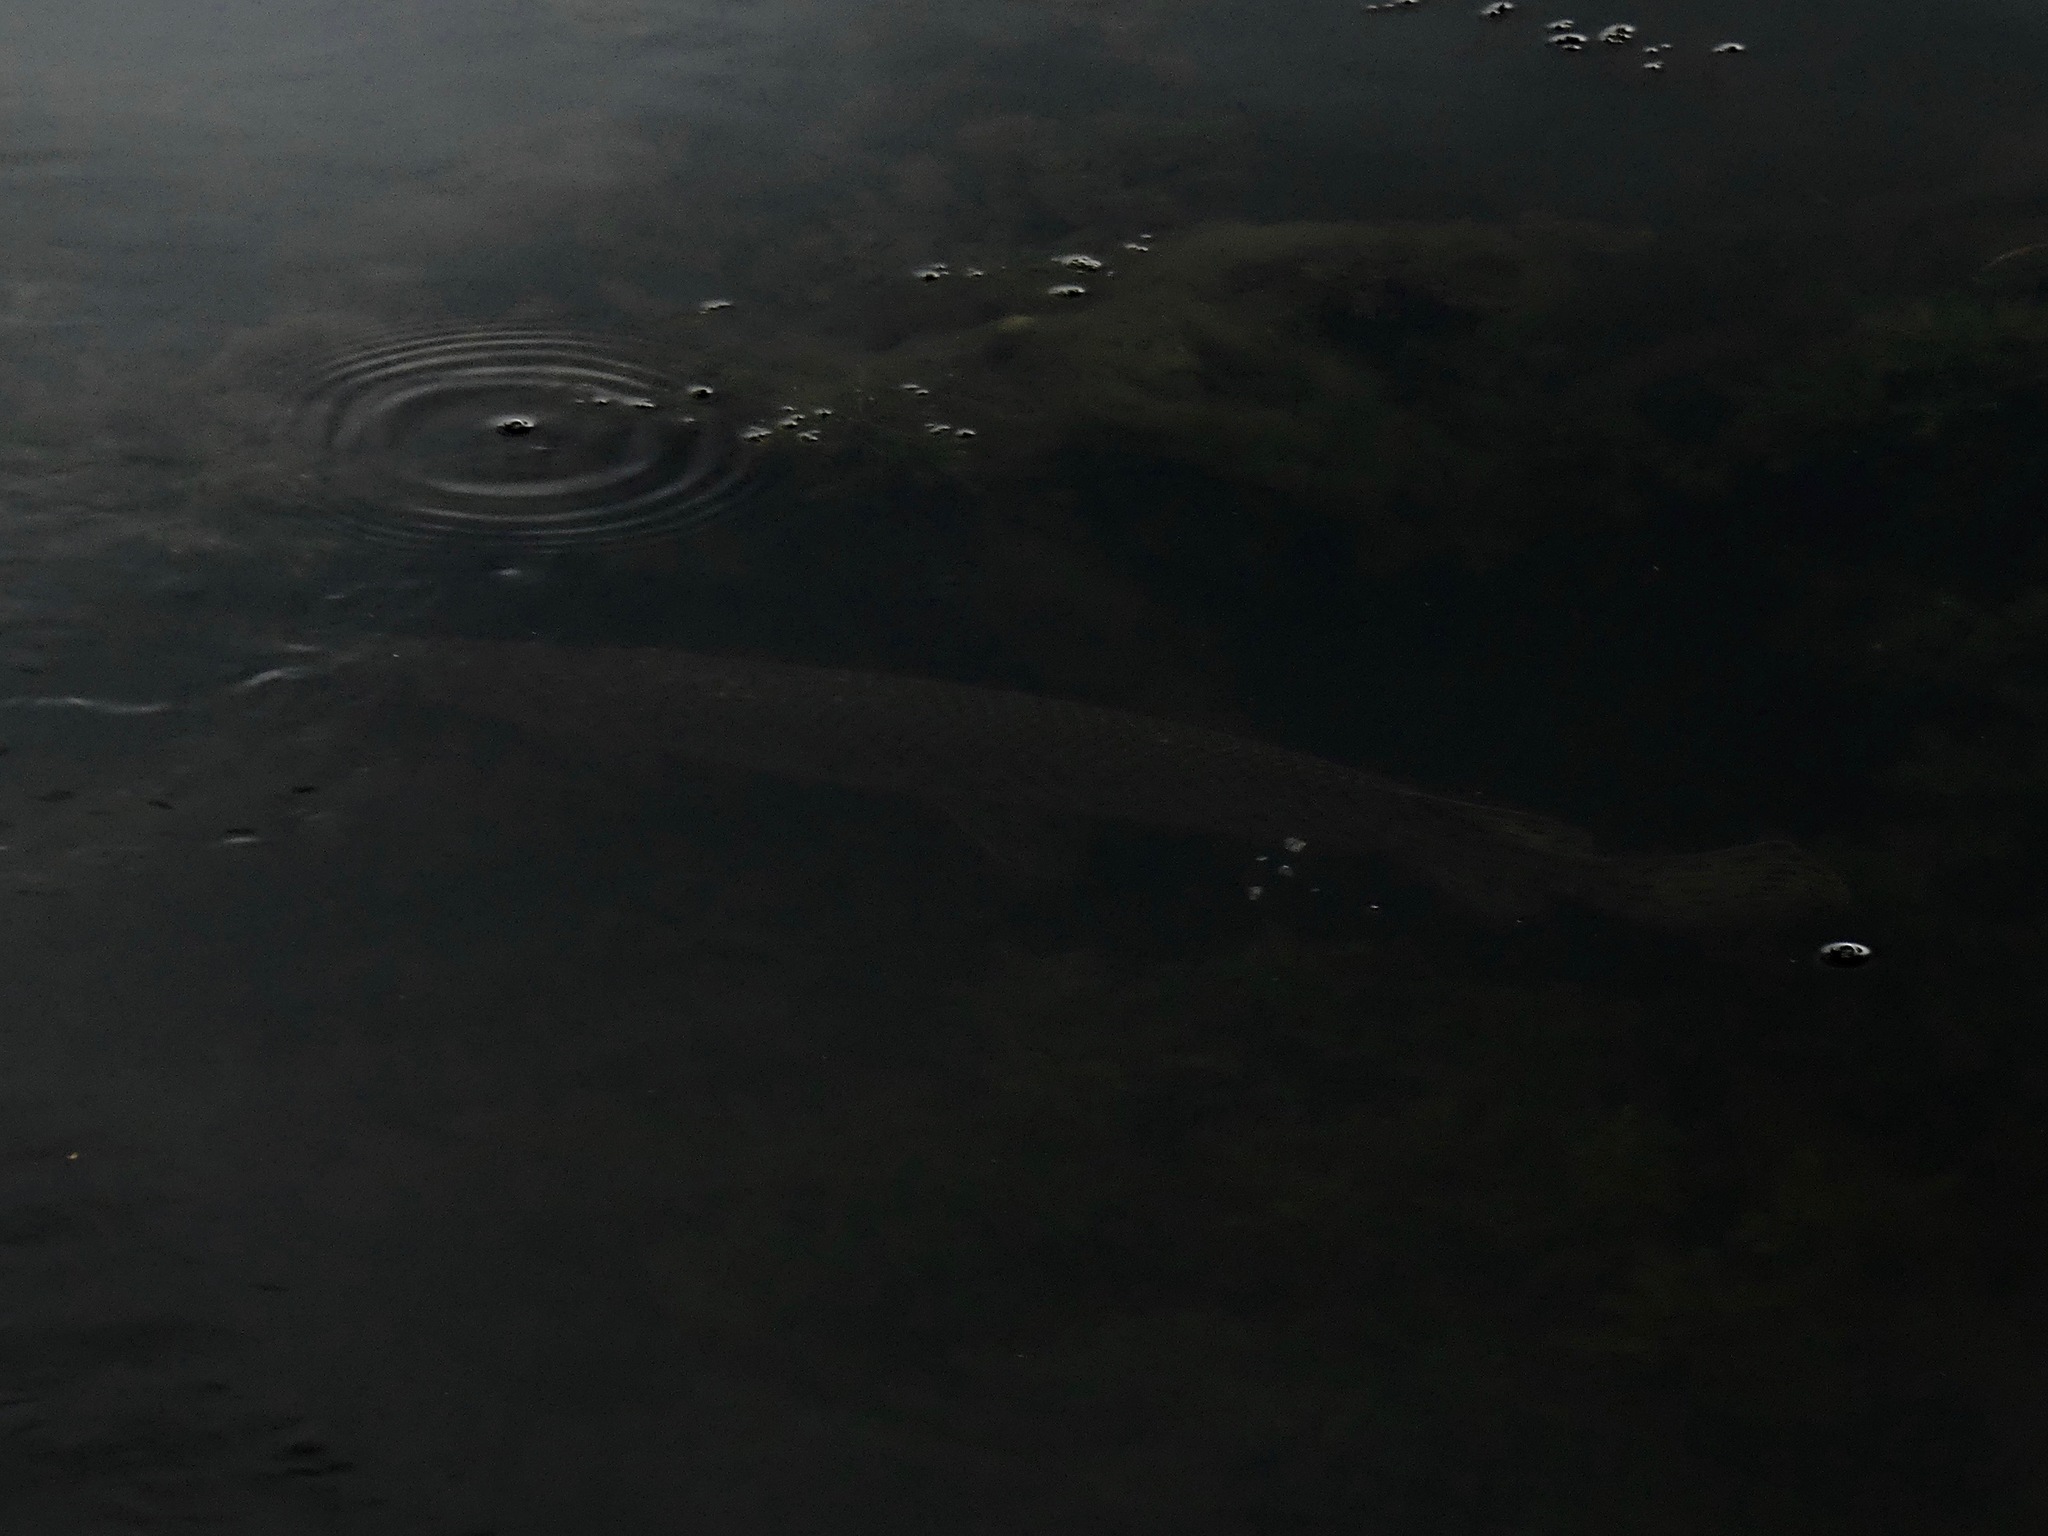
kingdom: Animalia
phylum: Chordata
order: Lepisosteiformes
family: Lepisosteidae
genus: Lepisosteus
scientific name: Lepisosteus oculatus
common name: Spotted gar
